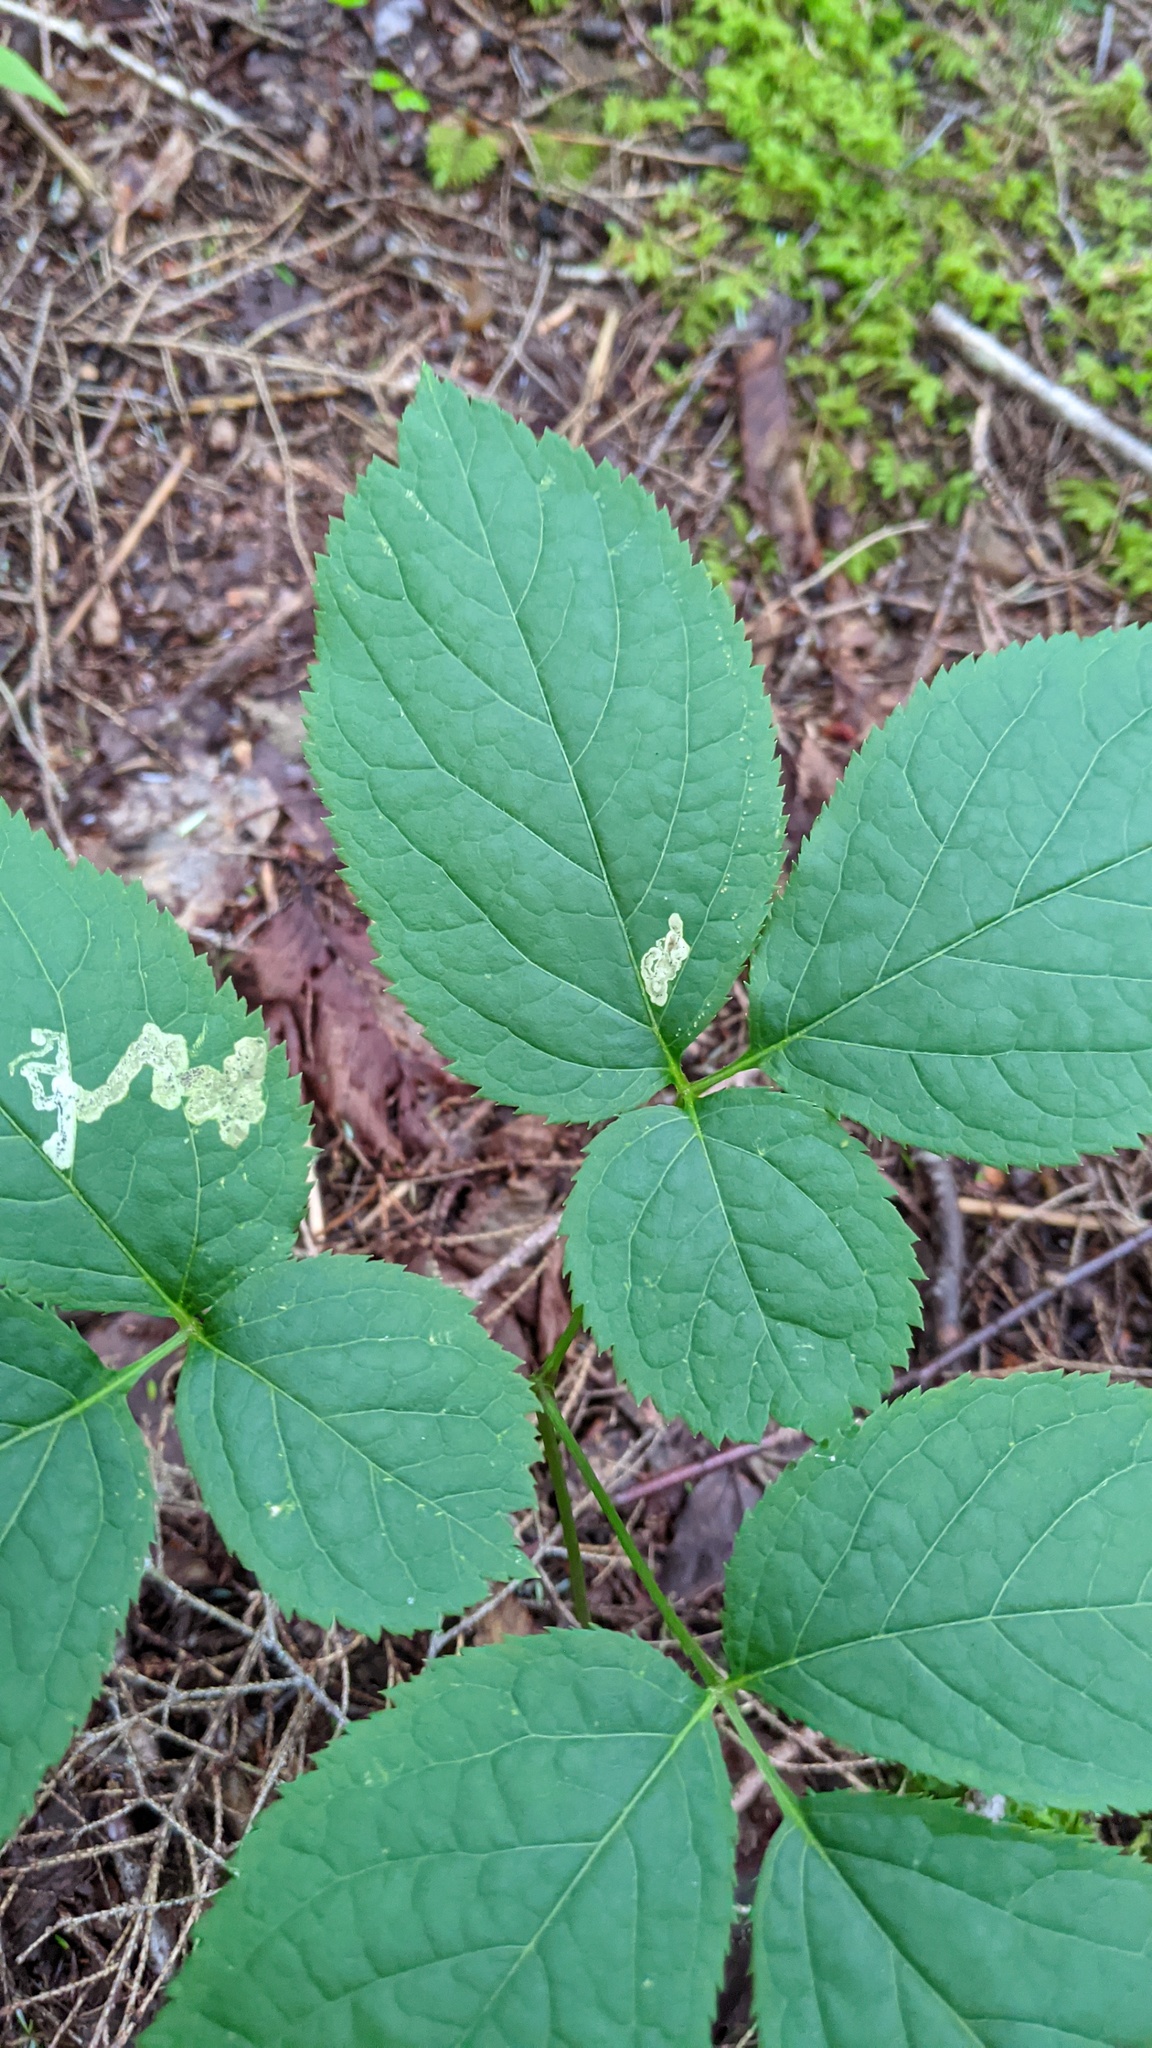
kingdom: Animalia
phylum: Arthropoda
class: Insecta
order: Diptera
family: Agromyzidae
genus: Phytomyza
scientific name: Phytomyza aralivora
